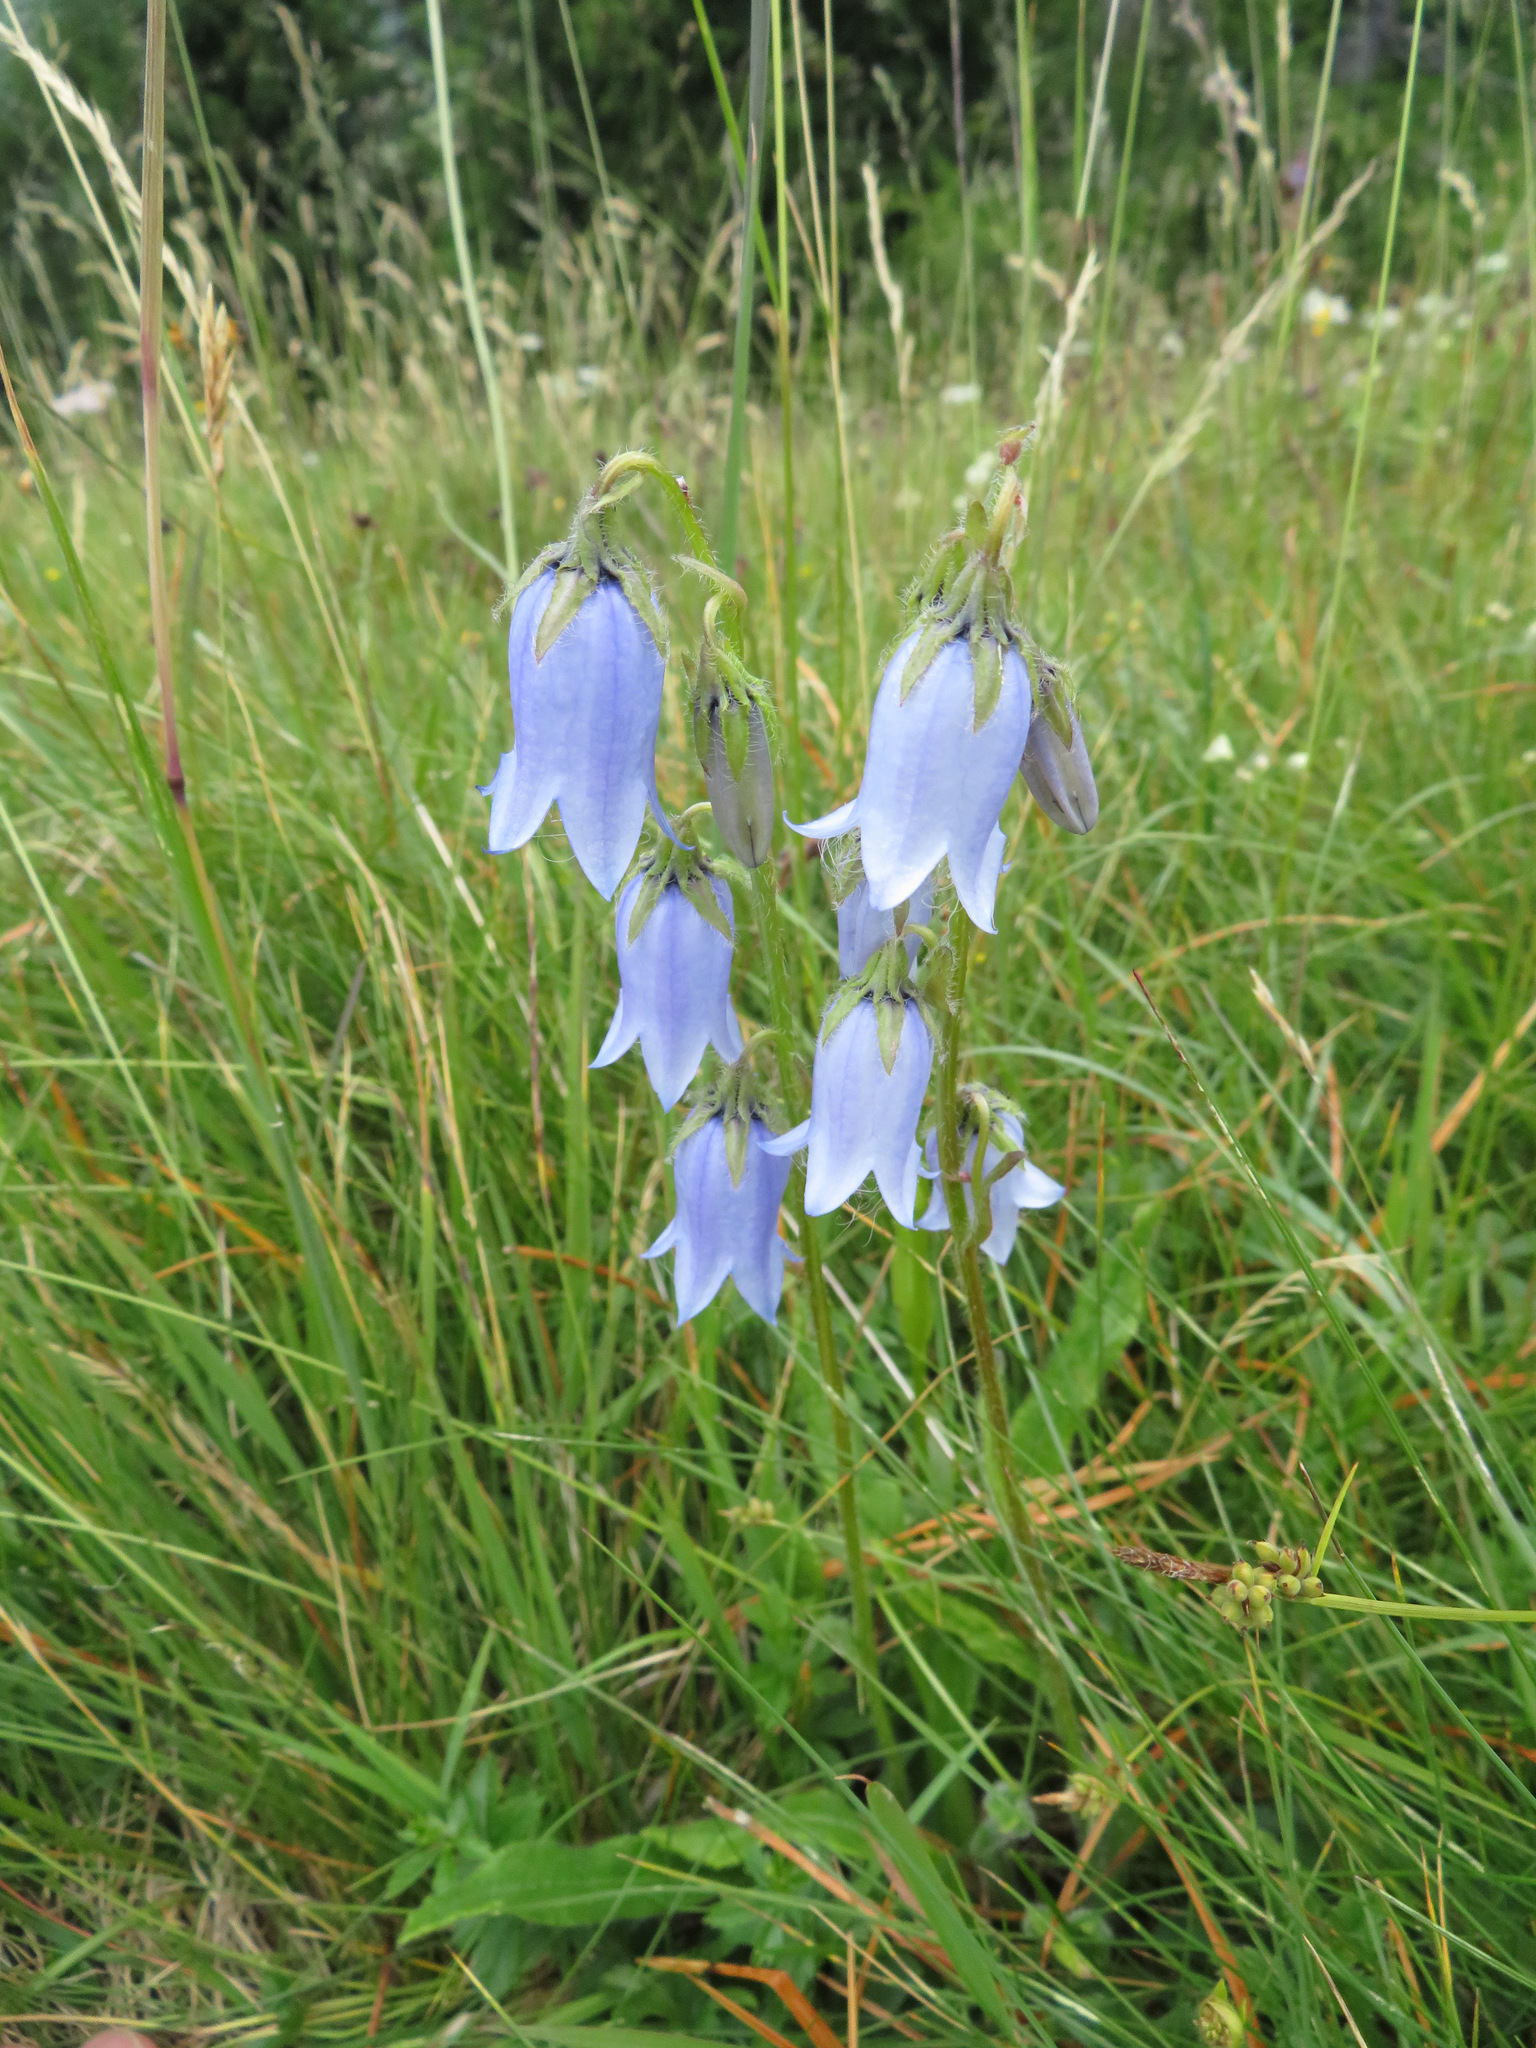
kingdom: Plantae
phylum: Tracheophyta
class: Magnoliopsida
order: Asterales
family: Campanulaceae
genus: Campanula
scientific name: Campanula barbata
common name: Bearded bellflower
